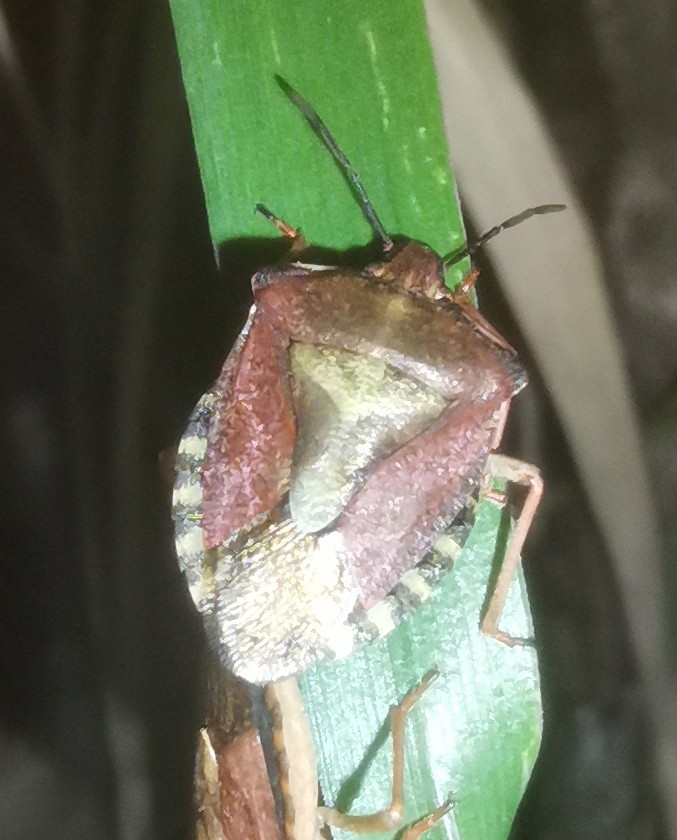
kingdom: Animalia
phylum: Arthropoda
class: Insecta
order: Hemiptera
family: Pentatomidae
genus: Carpocoris
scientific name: Carpocoris purpureipennis
